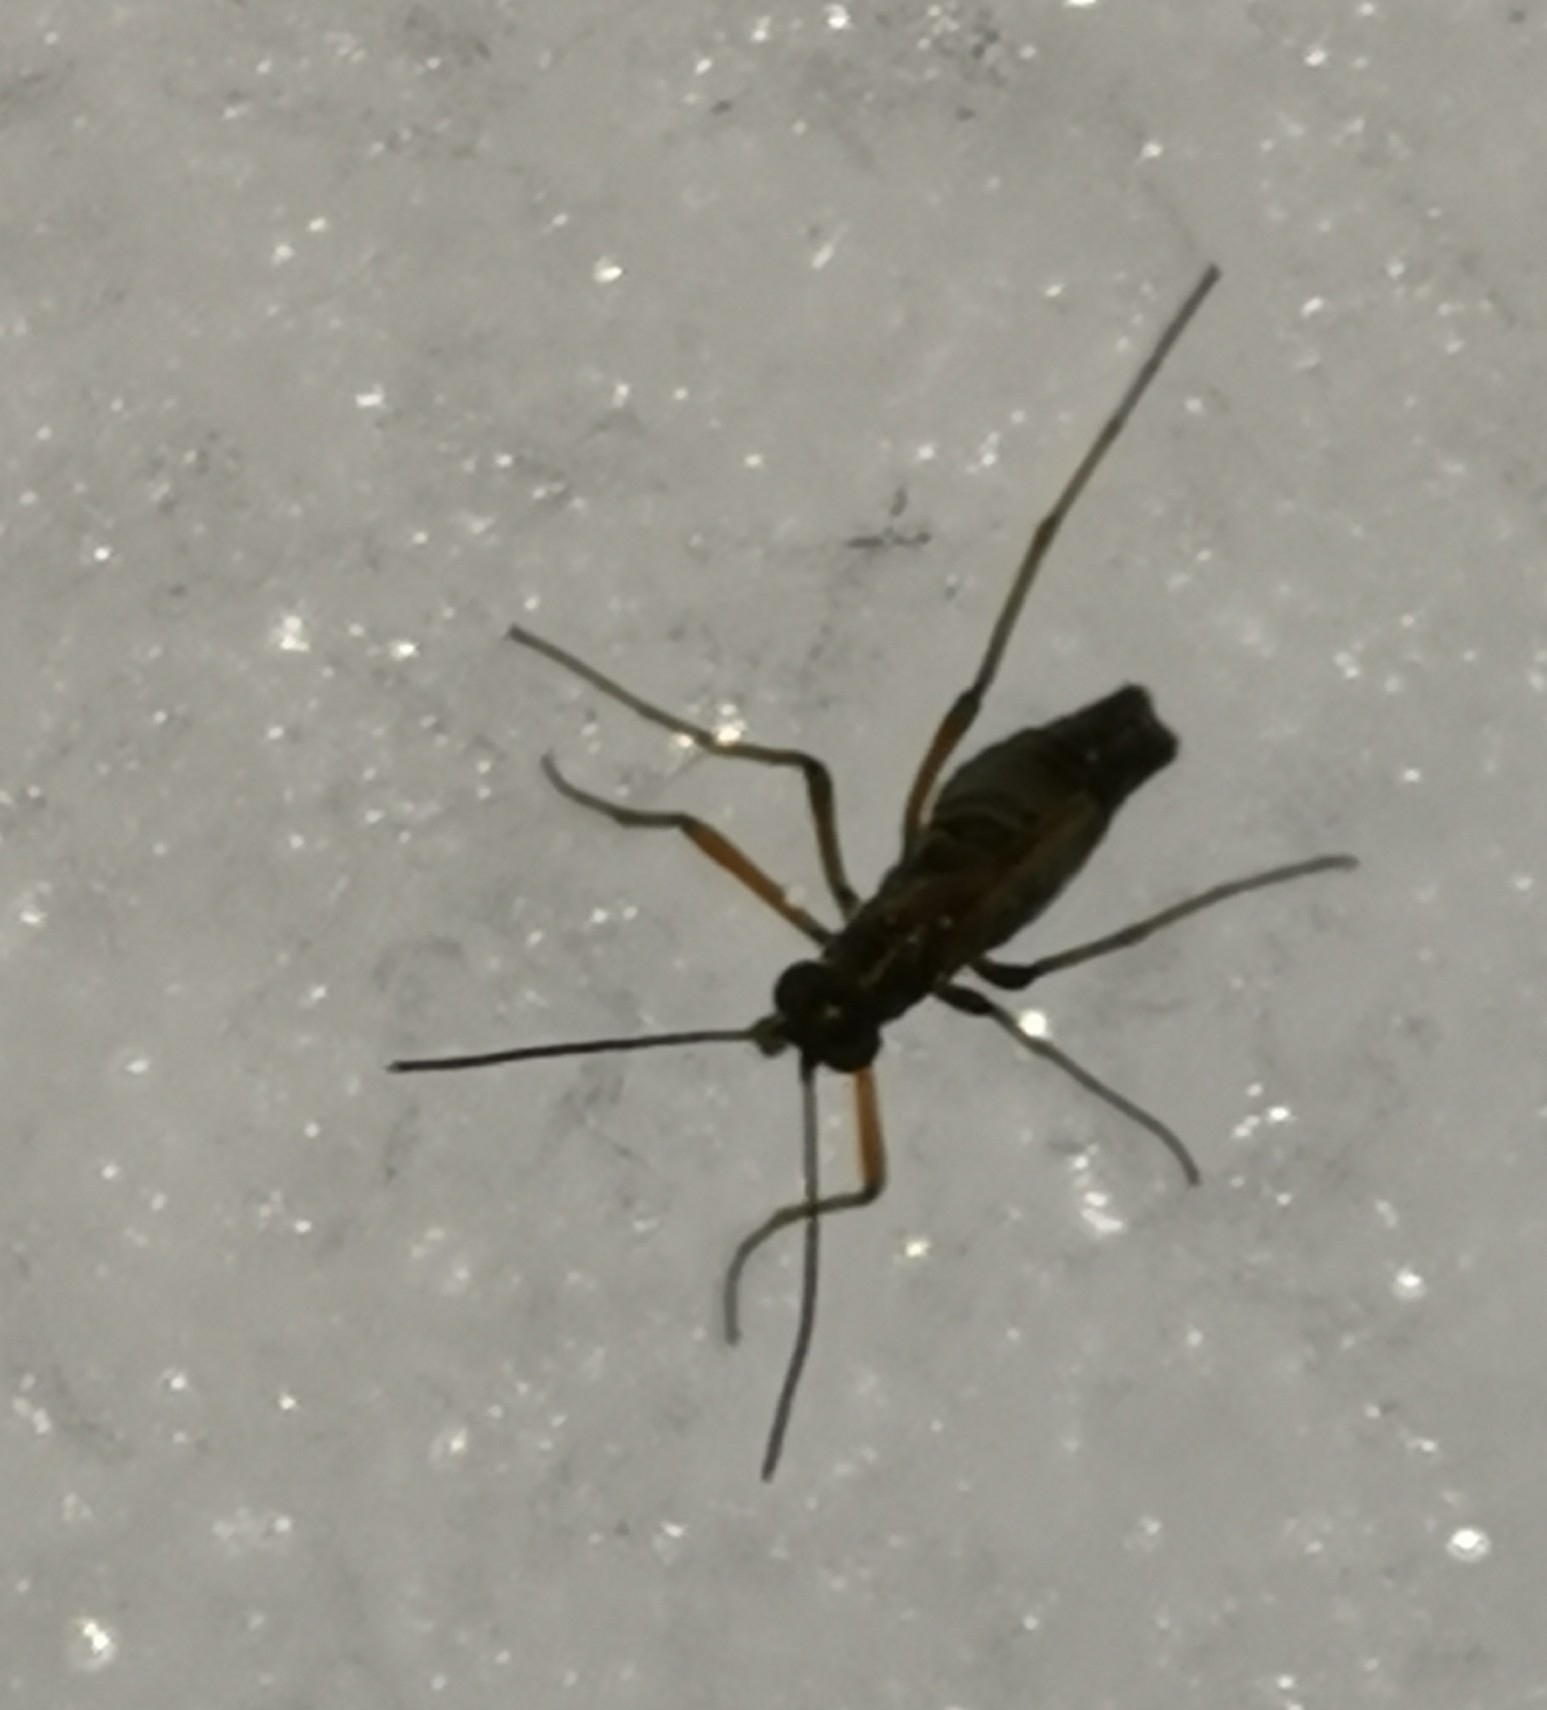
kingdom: Animalia
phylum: Arthropoda
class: Insecta
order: Mecoptera
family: Boreidae
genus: Boreus
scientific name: Boreus westwoodi
